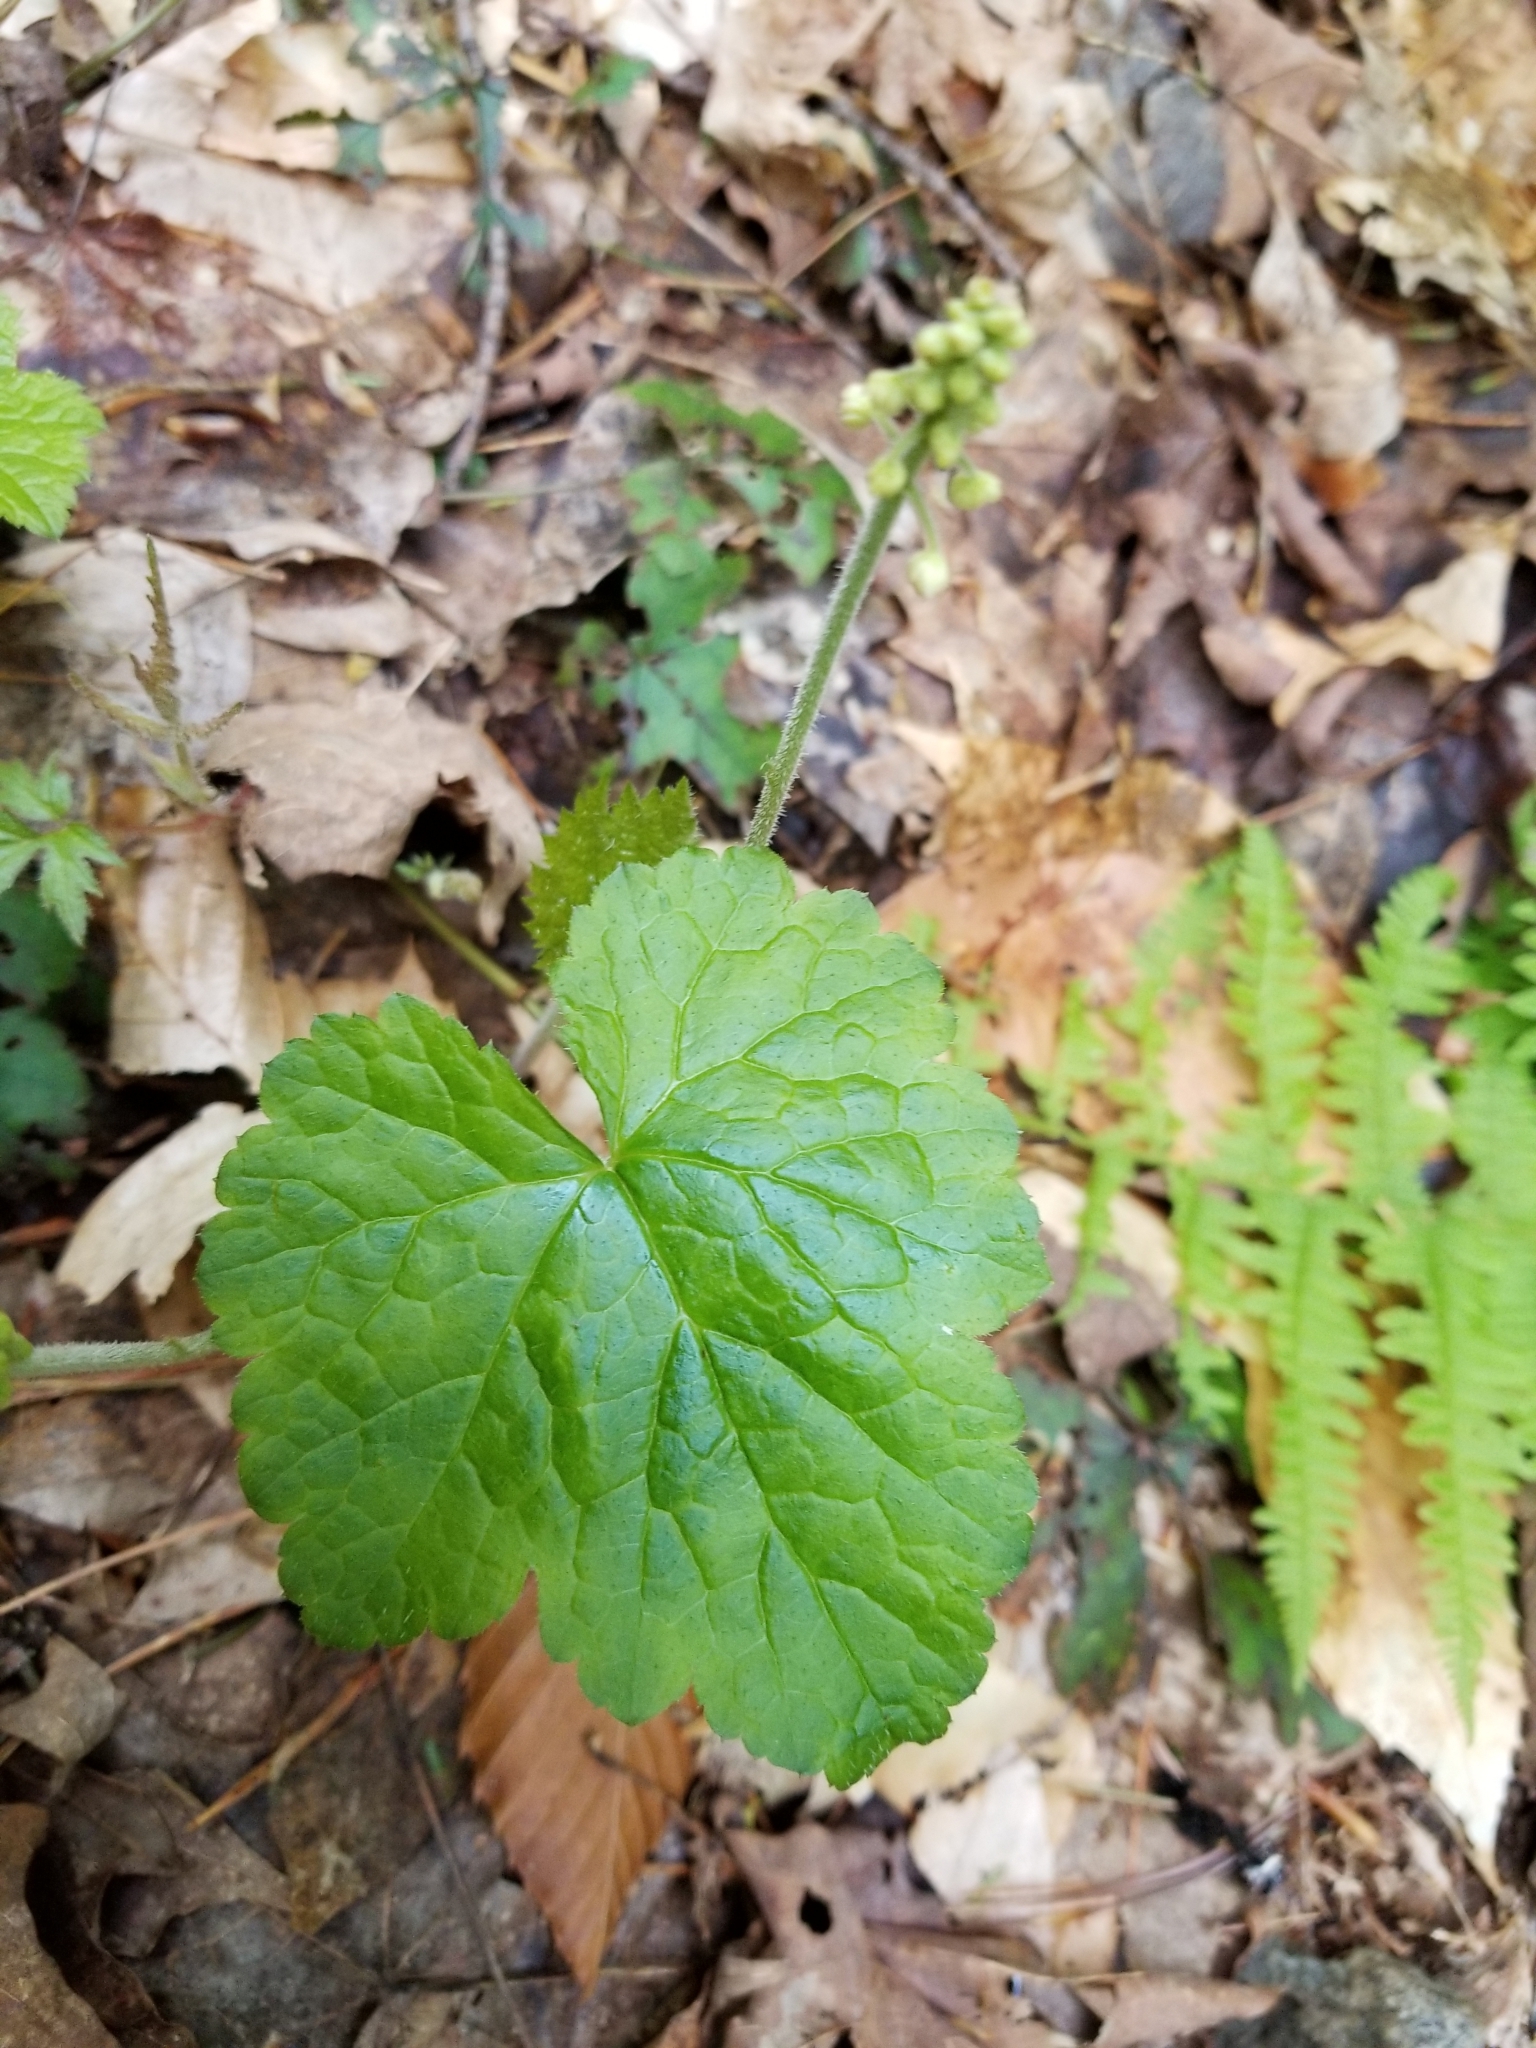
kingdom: Plantae
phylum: Tracheophyta
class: Magnoliopsida
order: Saxifragales
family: Saxifragaceae
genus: Tiarella
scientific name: Tiarella stolonifera
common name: Stoloniferous foamflower
